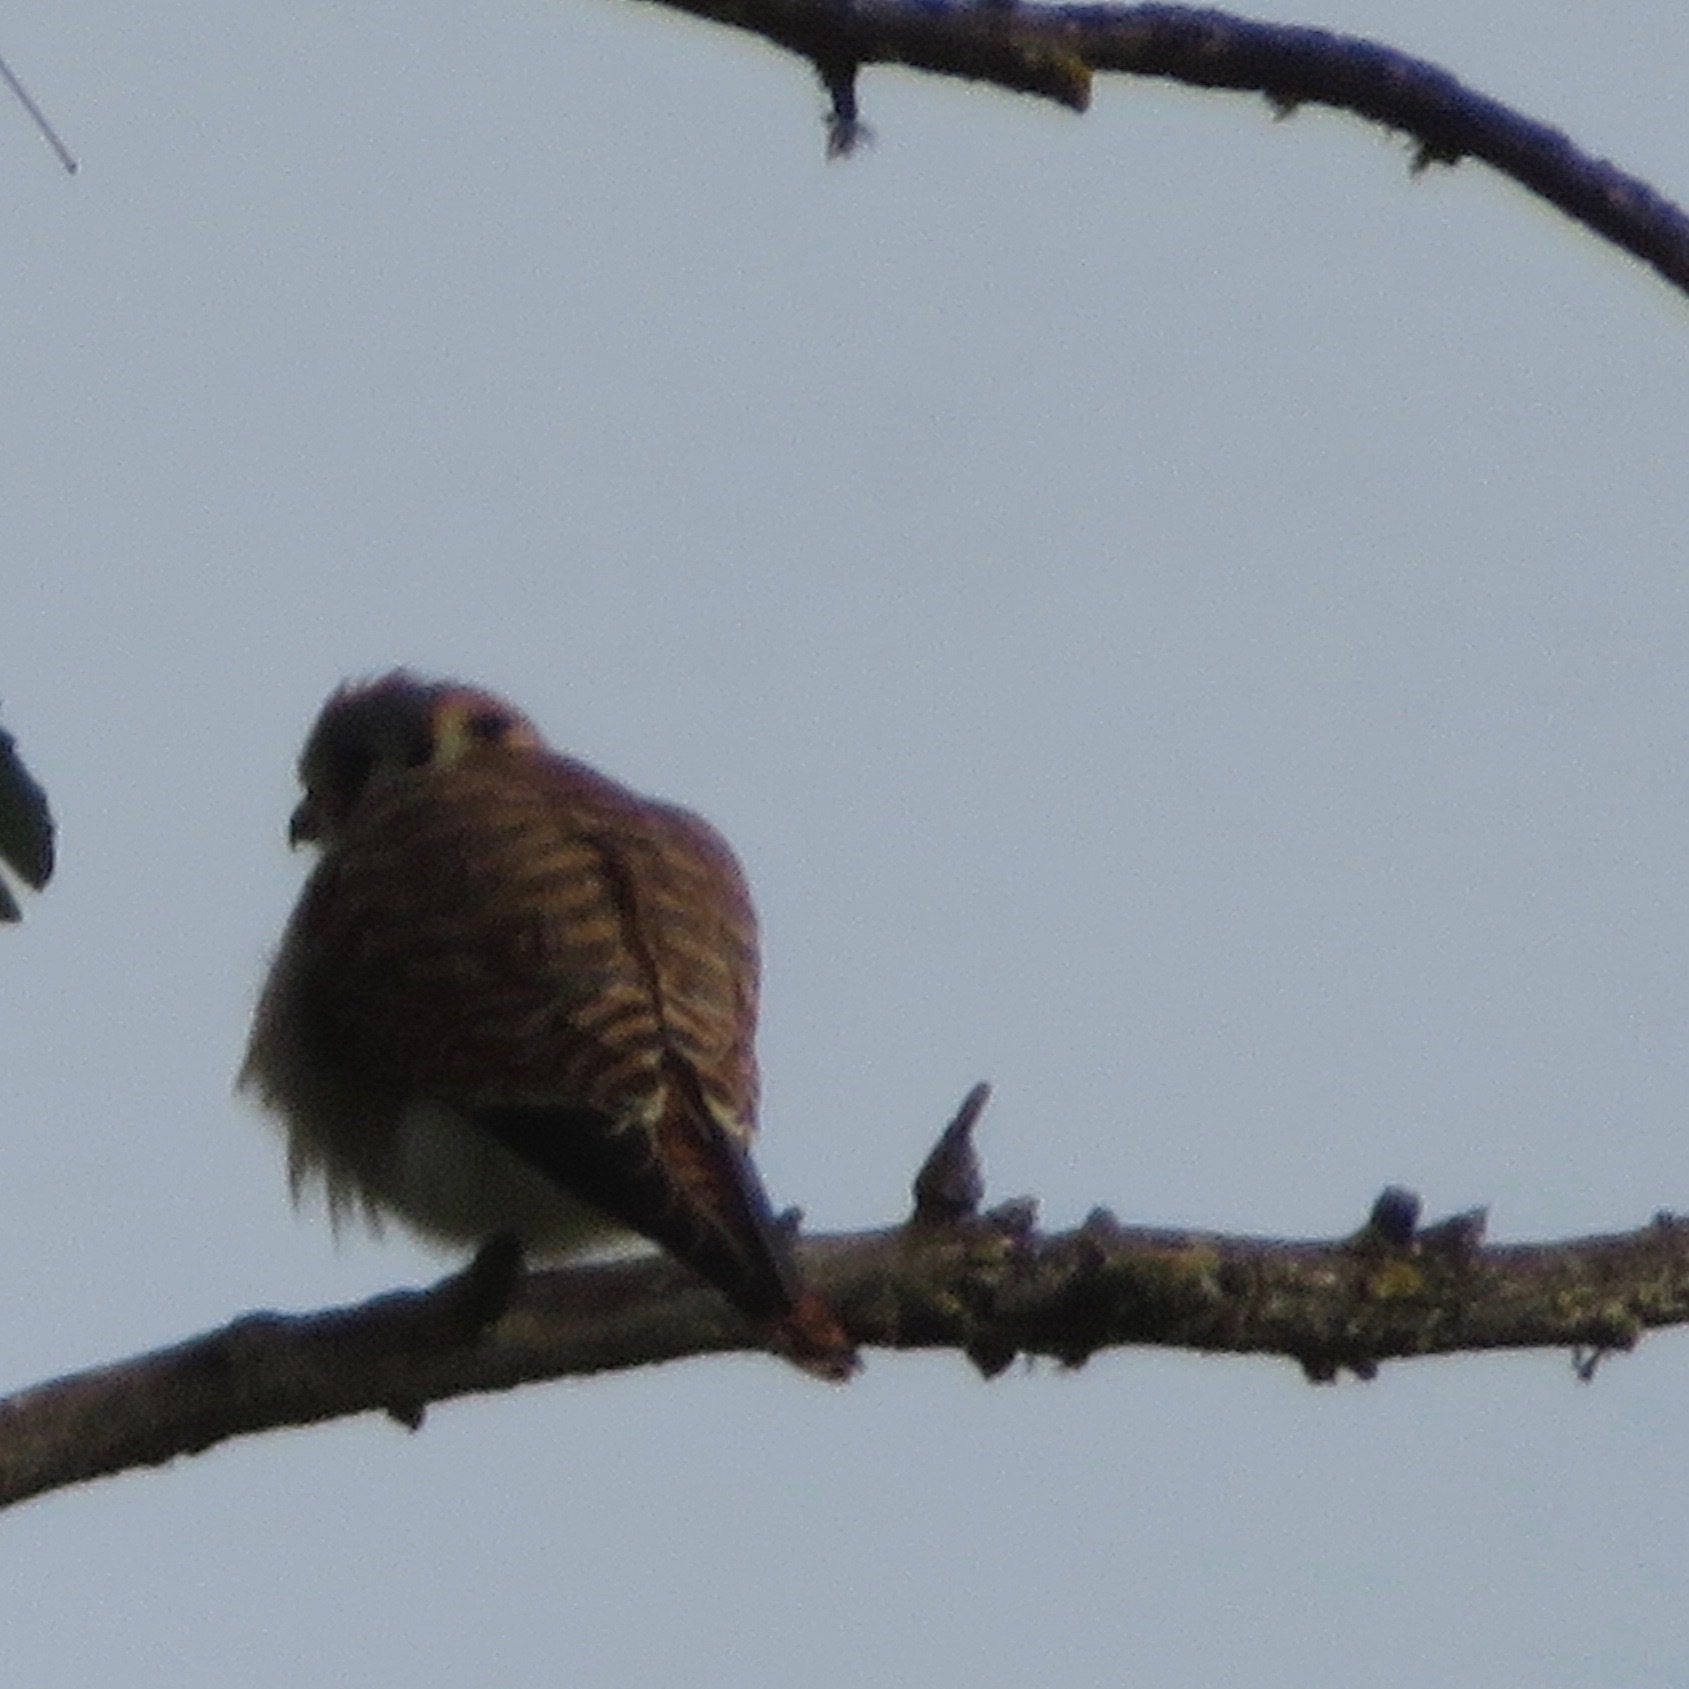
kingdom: Animalia
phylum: Chordata
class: Aves
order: Falconiformes
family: Falconidae
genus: Falco
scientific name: Falco sparverius
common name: American kestrel
